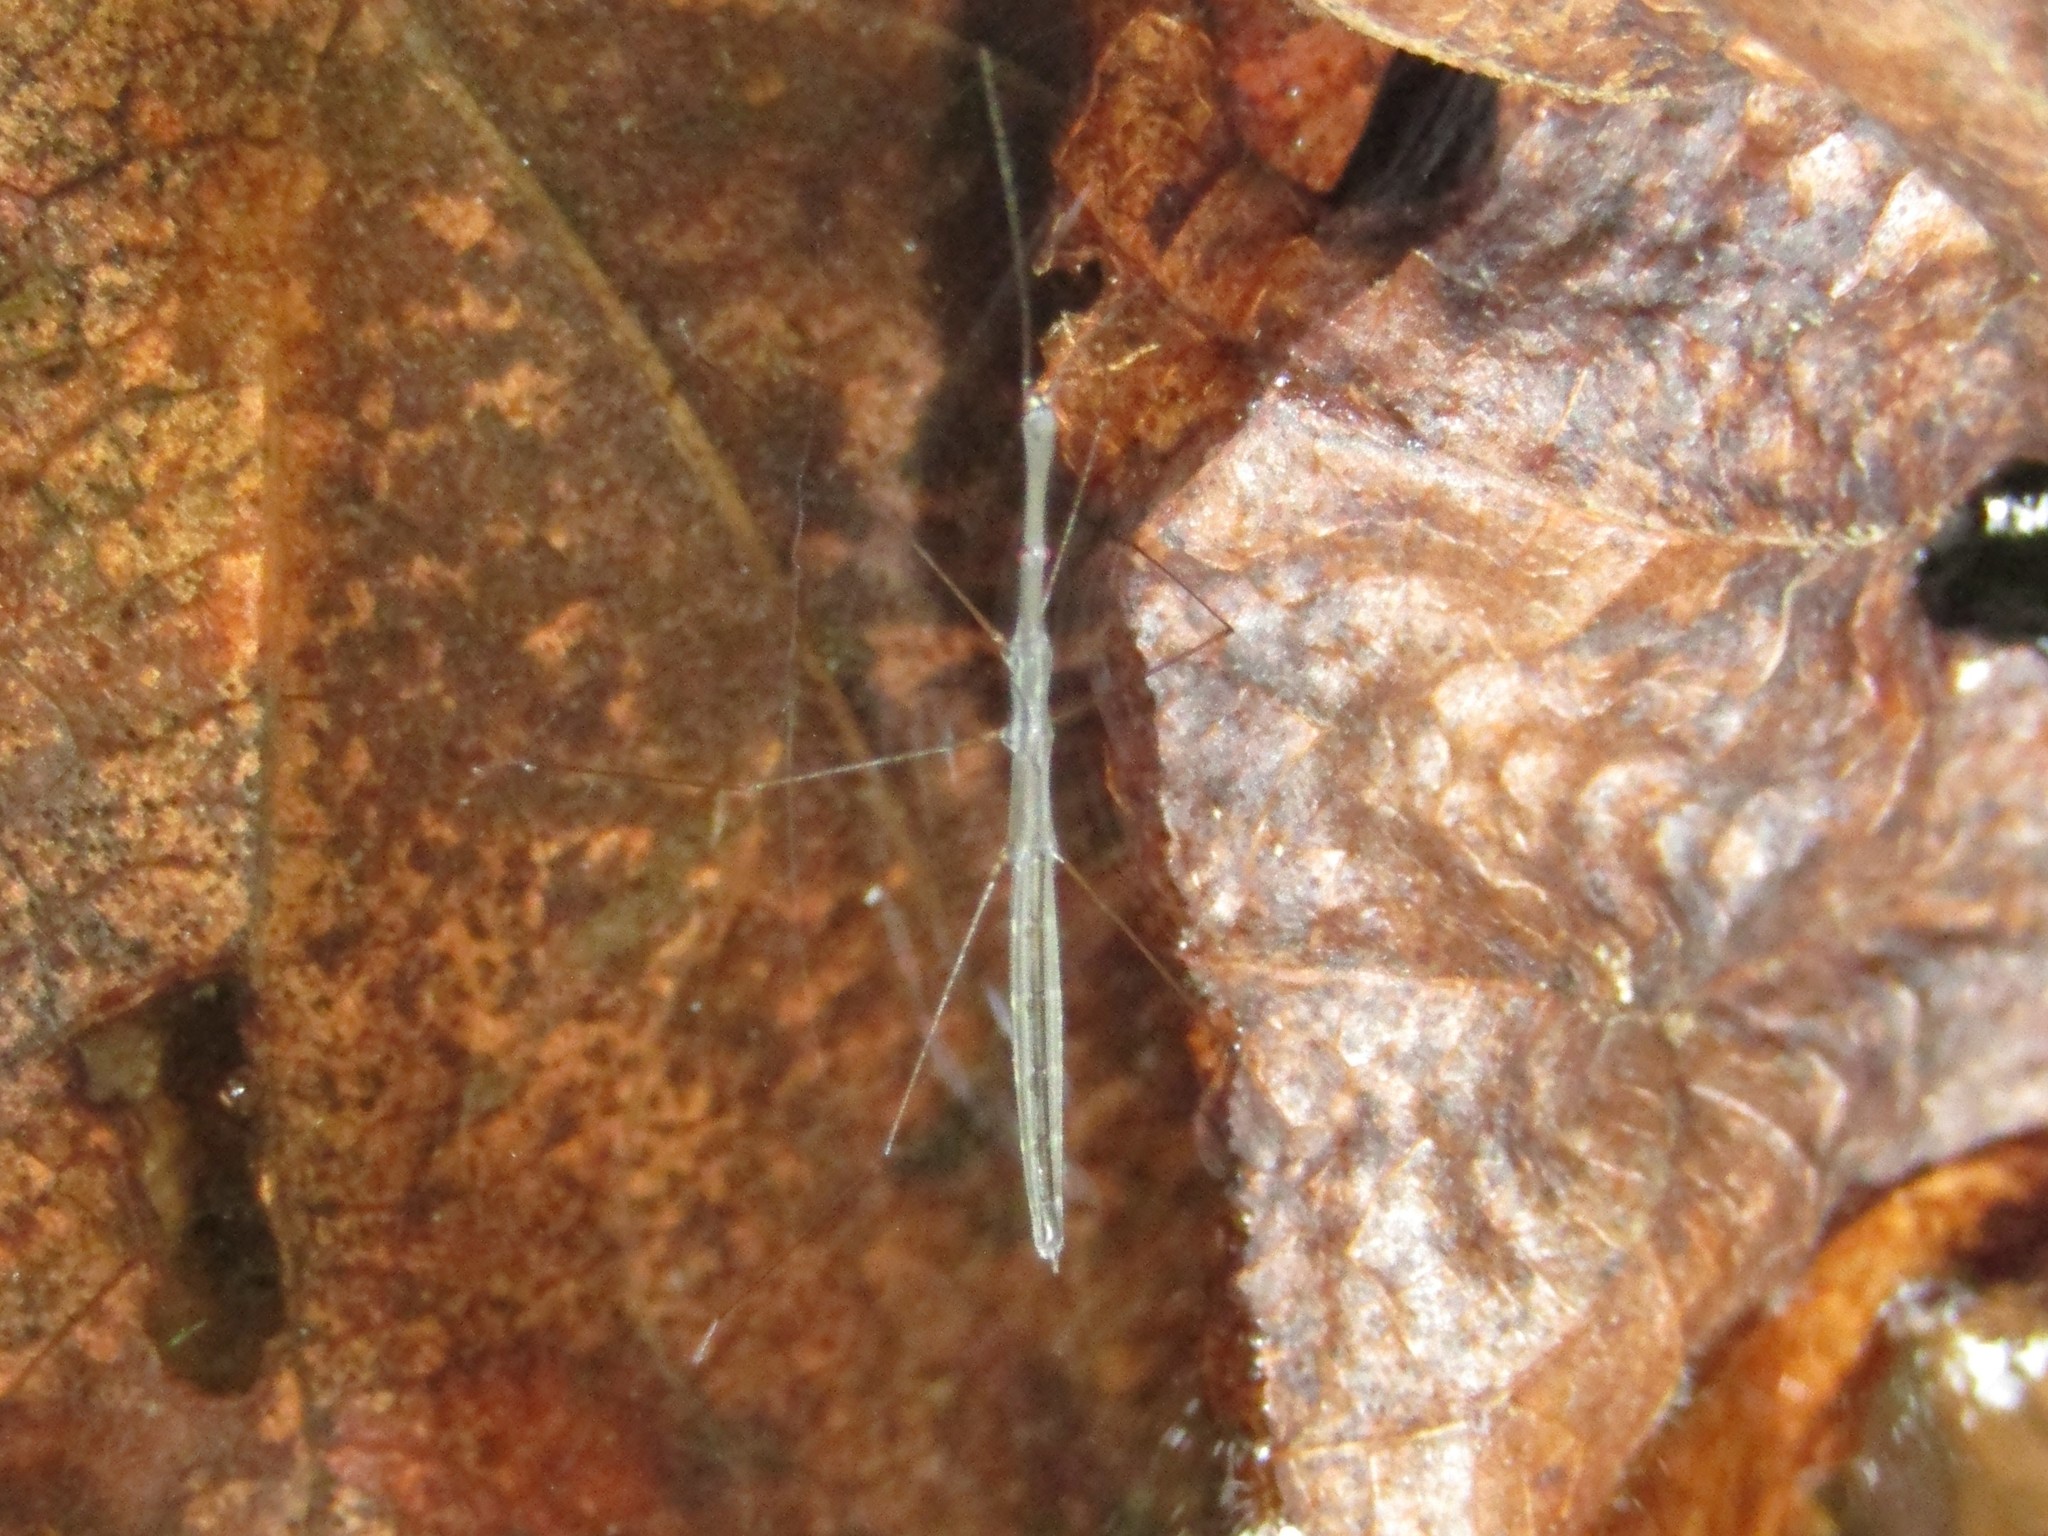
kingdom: Animalia
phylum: Arthropoda
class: Insecta
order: Hemiptera
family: Hydrometridae
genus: Hydrometra
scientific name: Hydrometra
